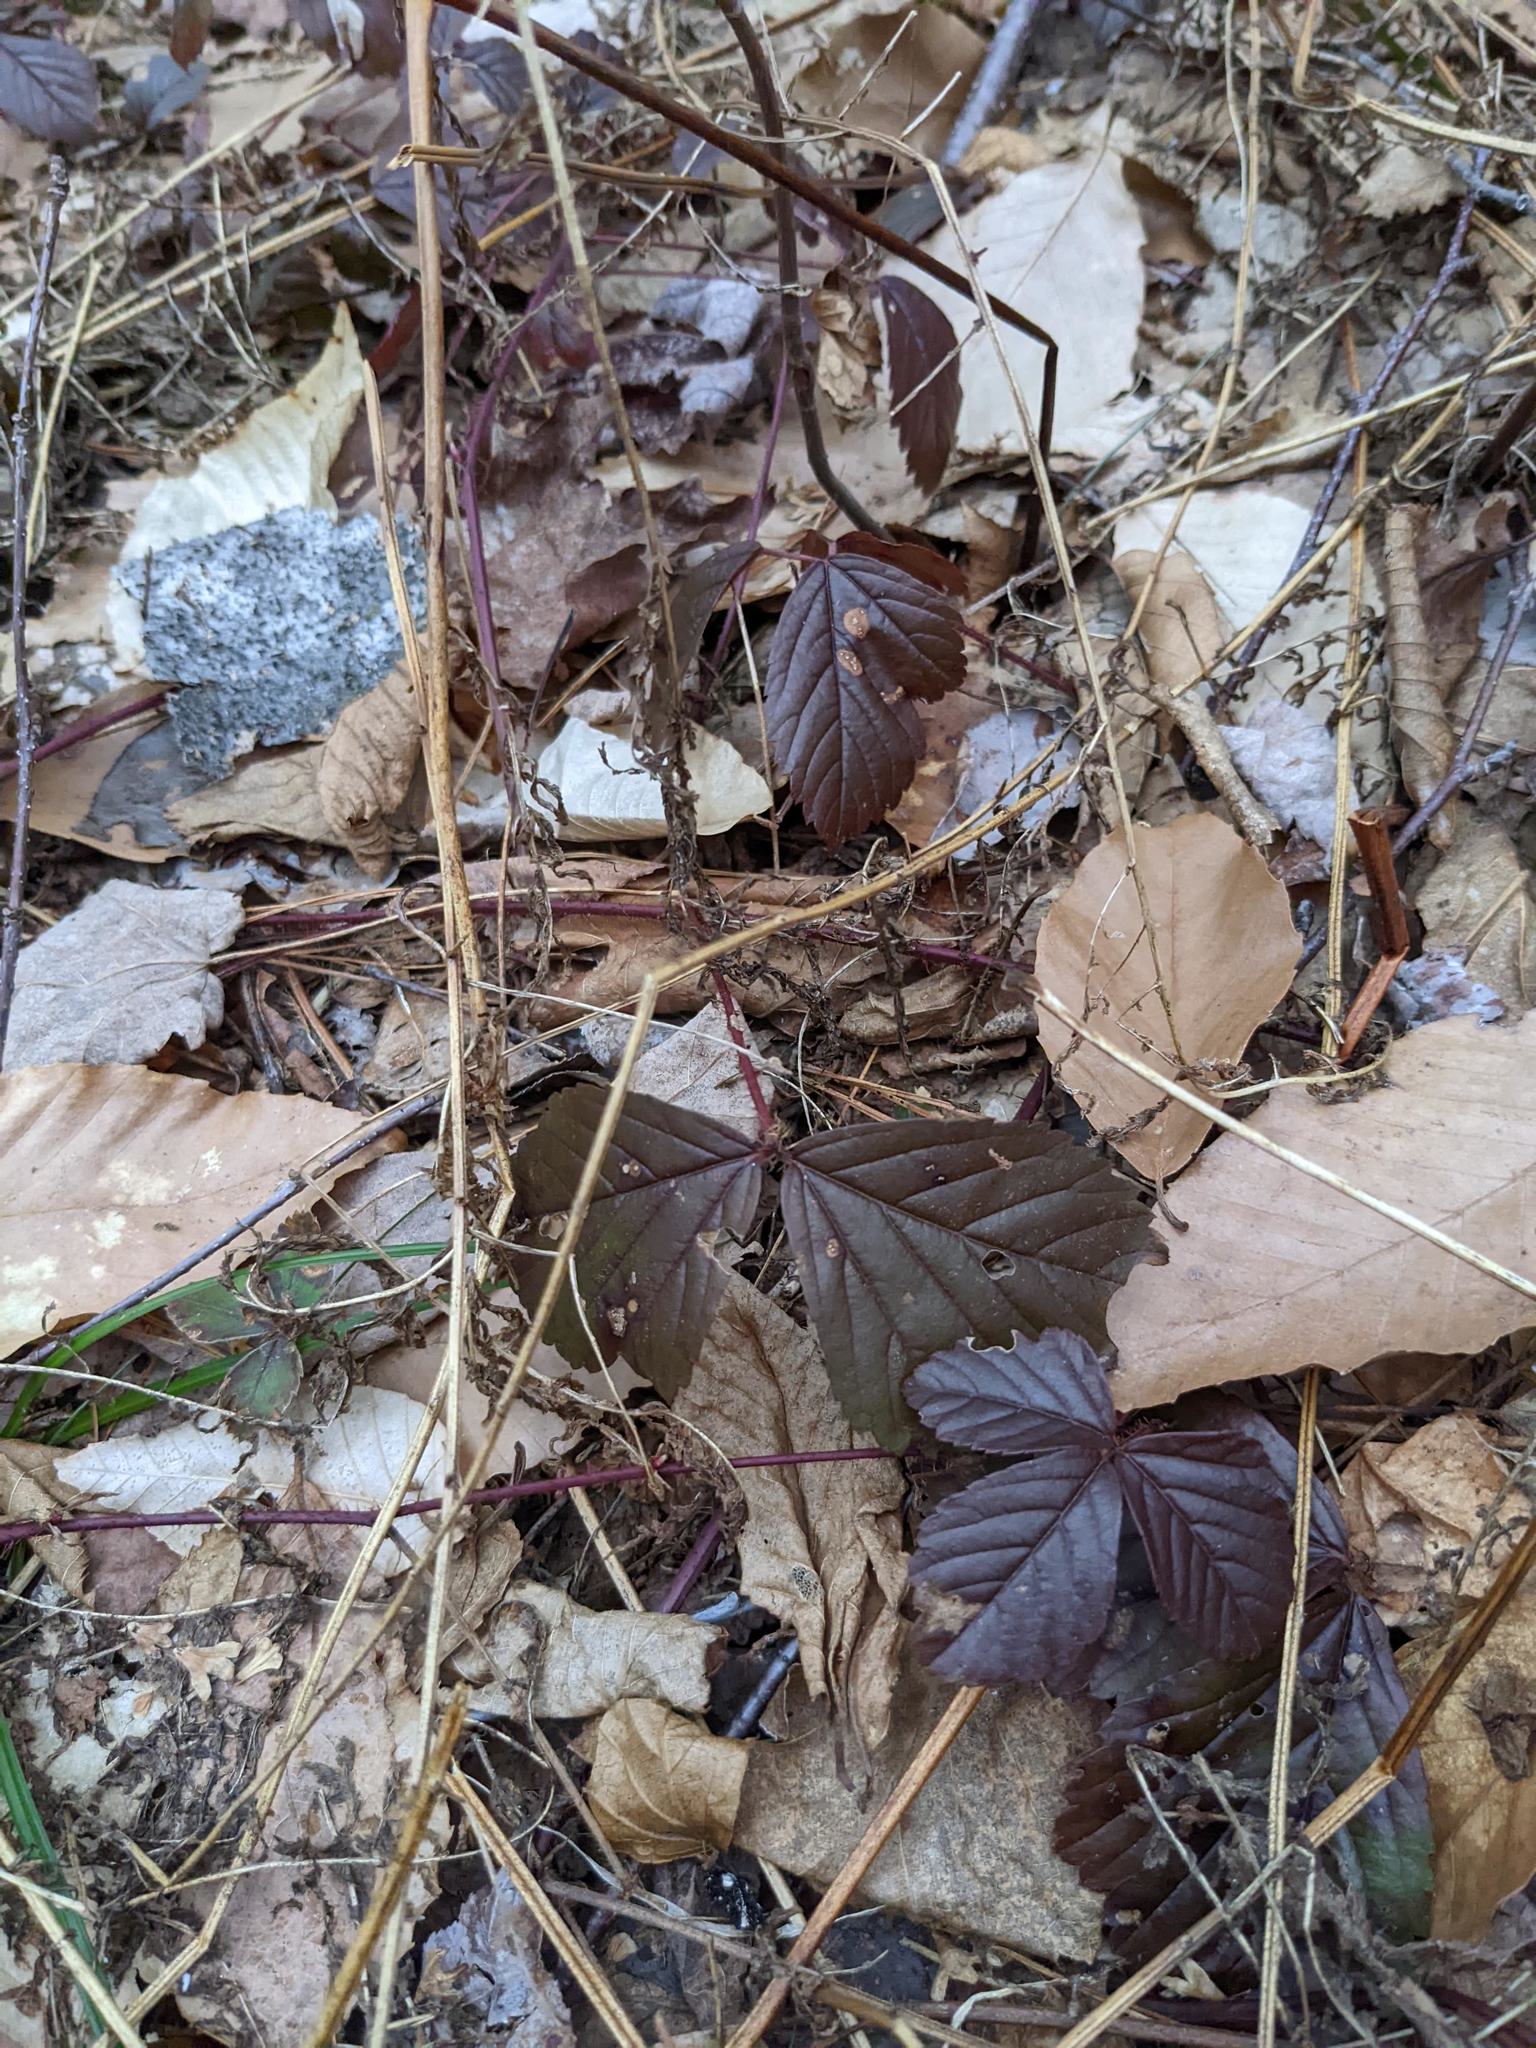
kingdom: Plantae
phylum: Tracheophyta
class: Magnoliopsida
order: Rosales
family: Rosaceae
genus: Rubus
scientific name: Rubus hispidus
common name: Running blackberry
